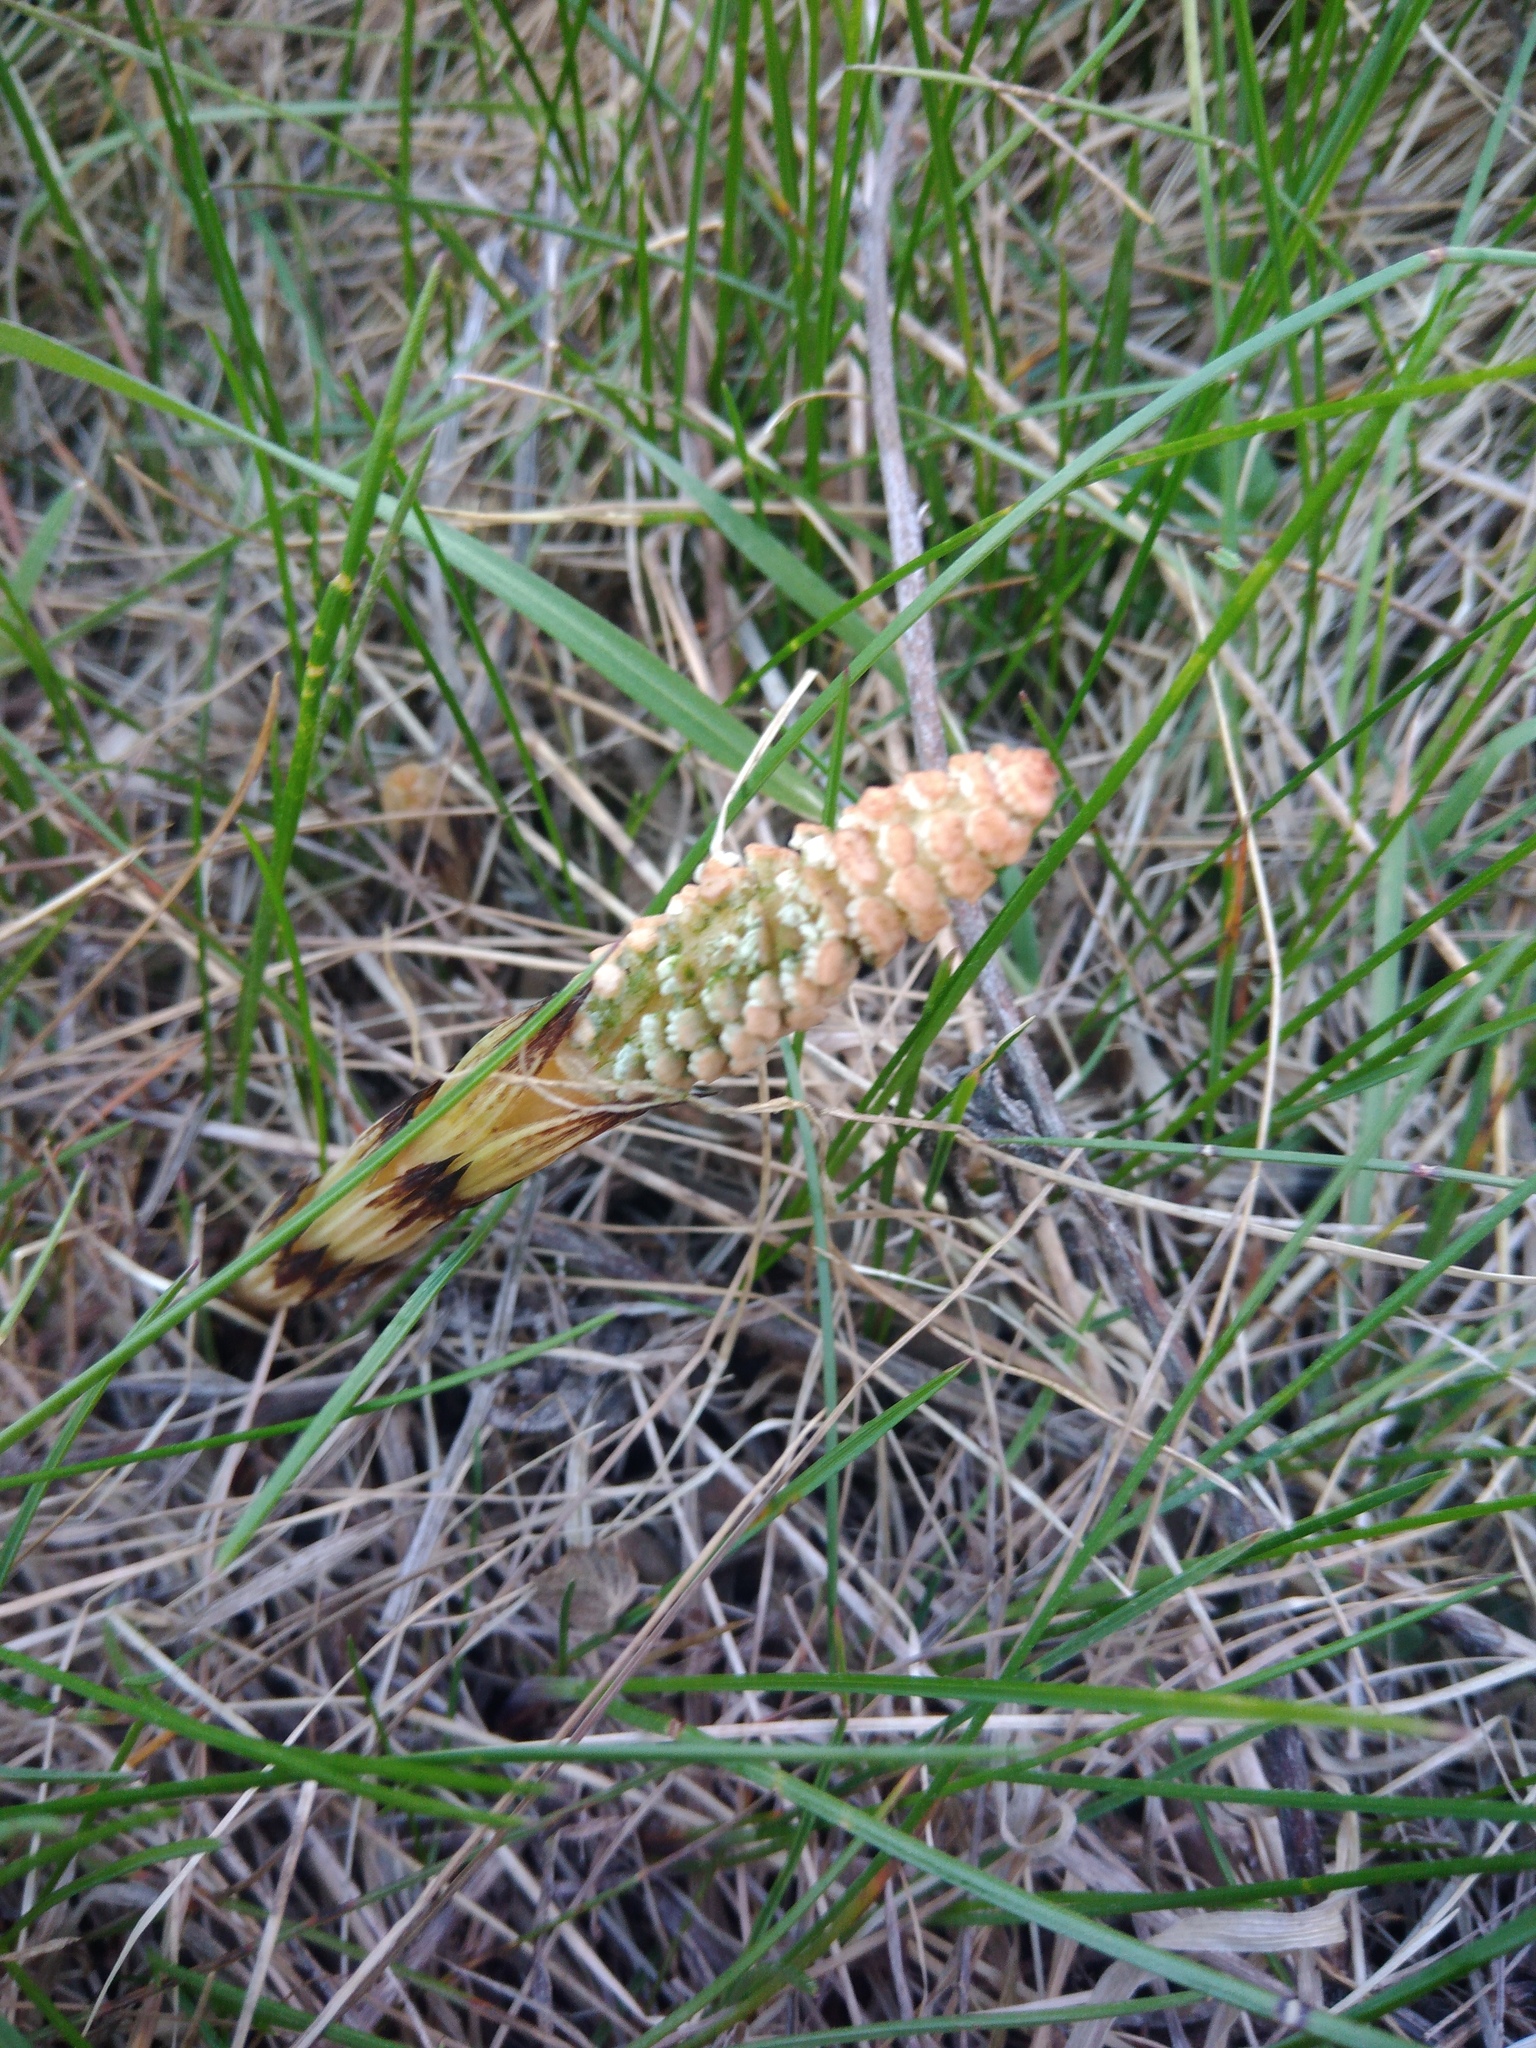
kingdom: Plantae
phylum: Tracheophyta
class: Polypodiopsida
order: Equisetales
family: Equisetaceae
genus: Equisetum
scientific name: Equisetum arvense
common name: Field horsetail
